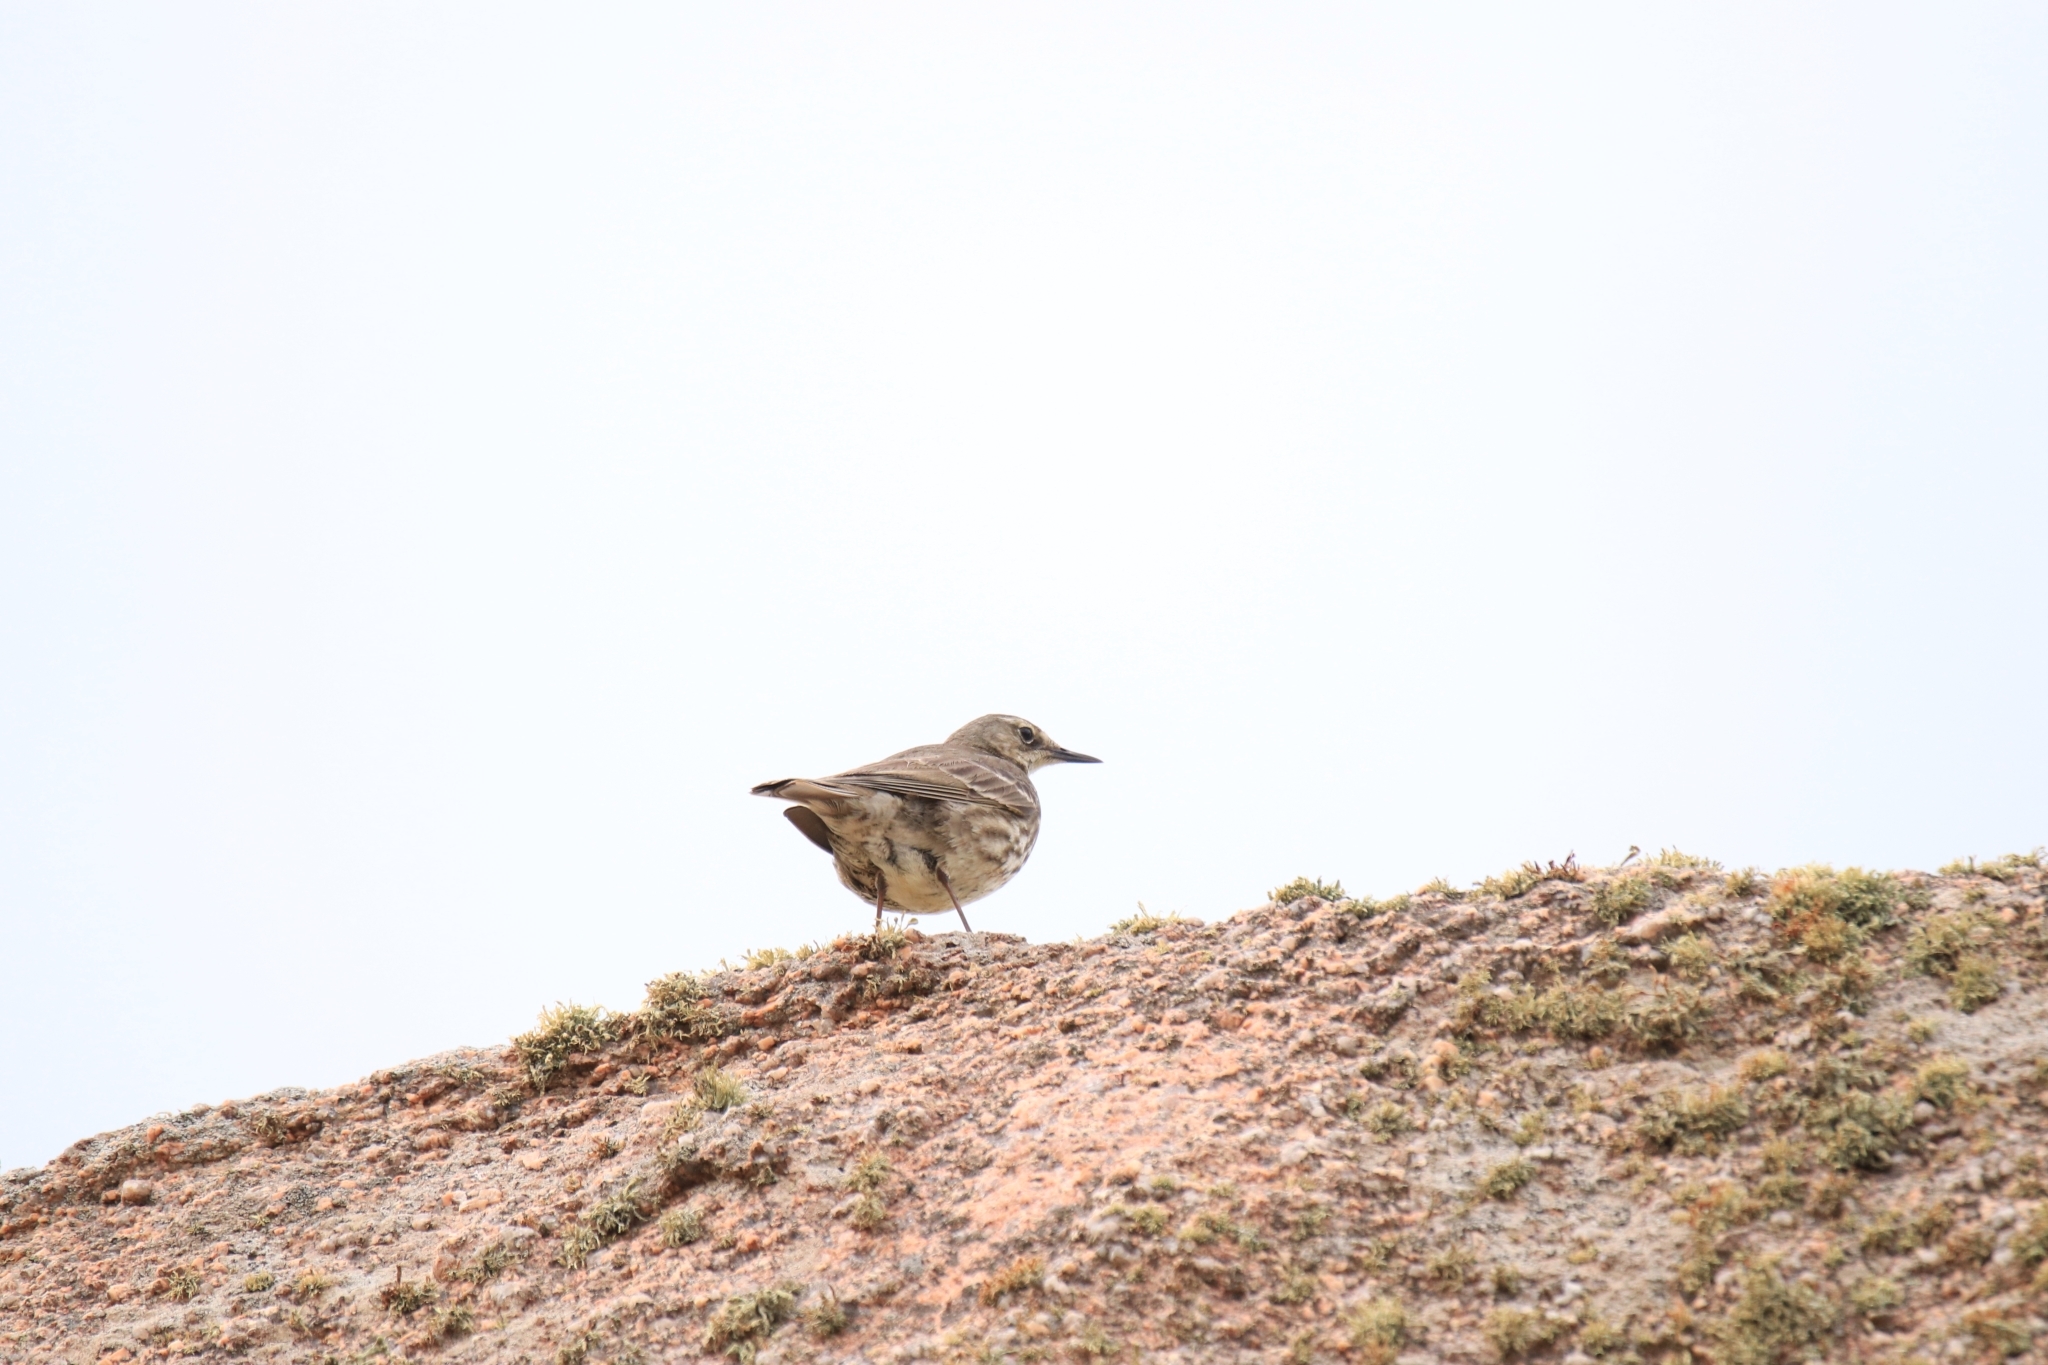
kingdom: Animalia
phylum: Chordata
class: Aves
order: Passeriformes
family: Motacillidae
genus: Anthus
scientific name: Anthus petrosus
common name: Eurasian rock pipit
